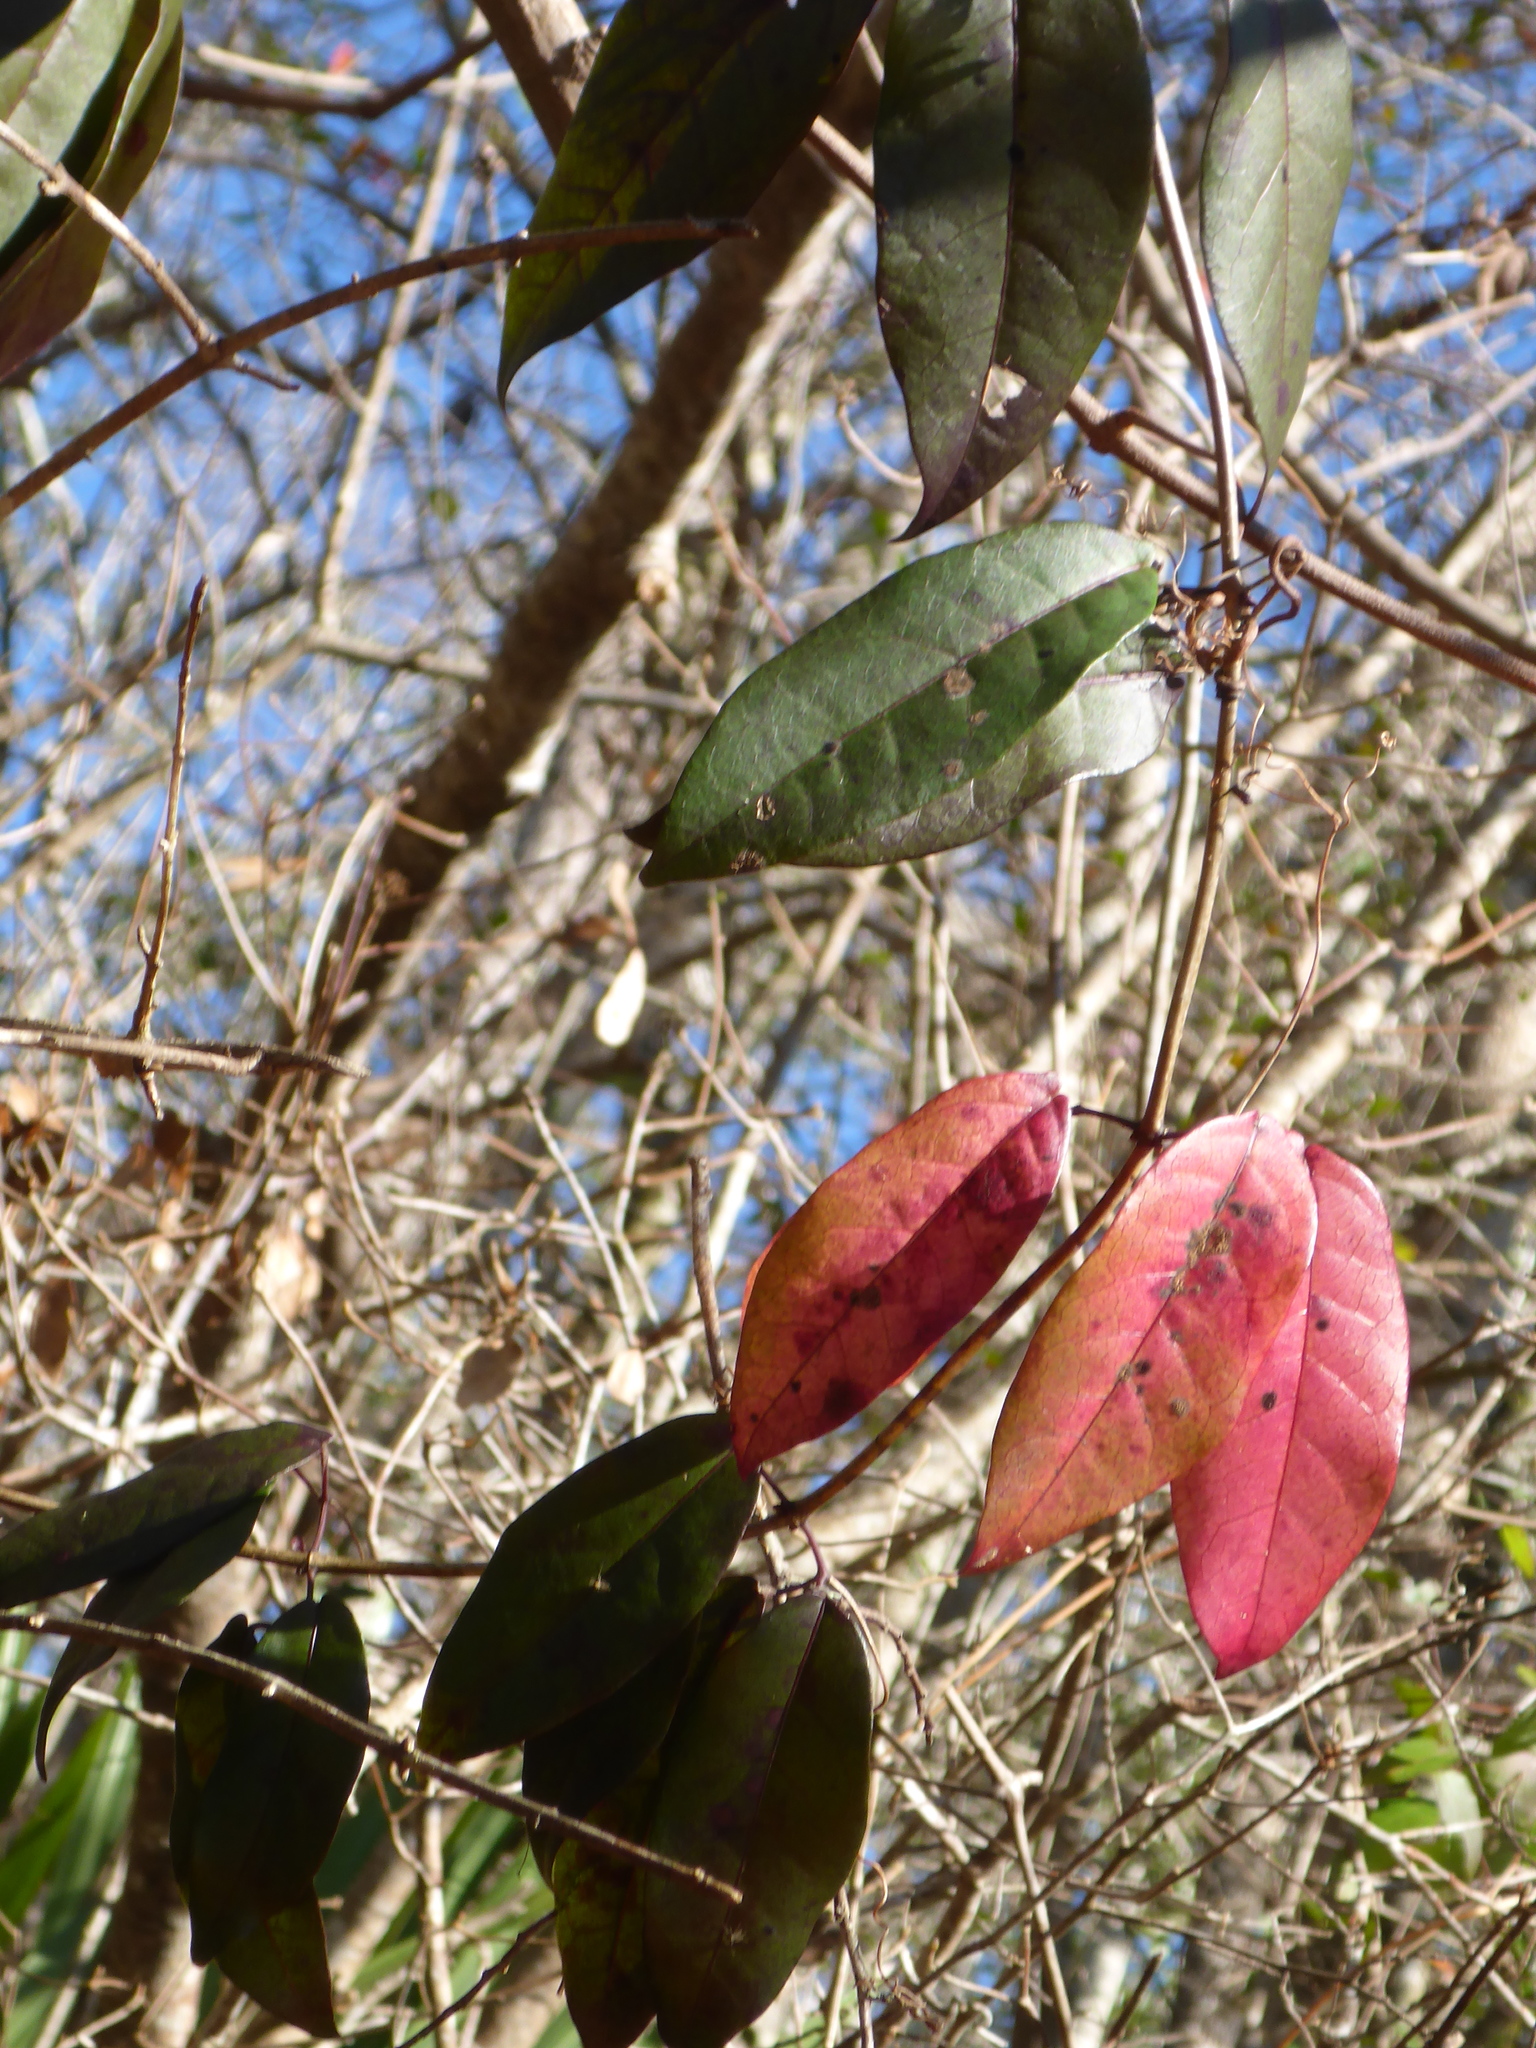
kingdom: Plantae
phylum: Tracheophyta
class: Magnoliopsida
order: Lamiales
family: Bignoniaceae
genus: Bignonia
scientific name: Bignonia capreolata
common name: Crossvine
